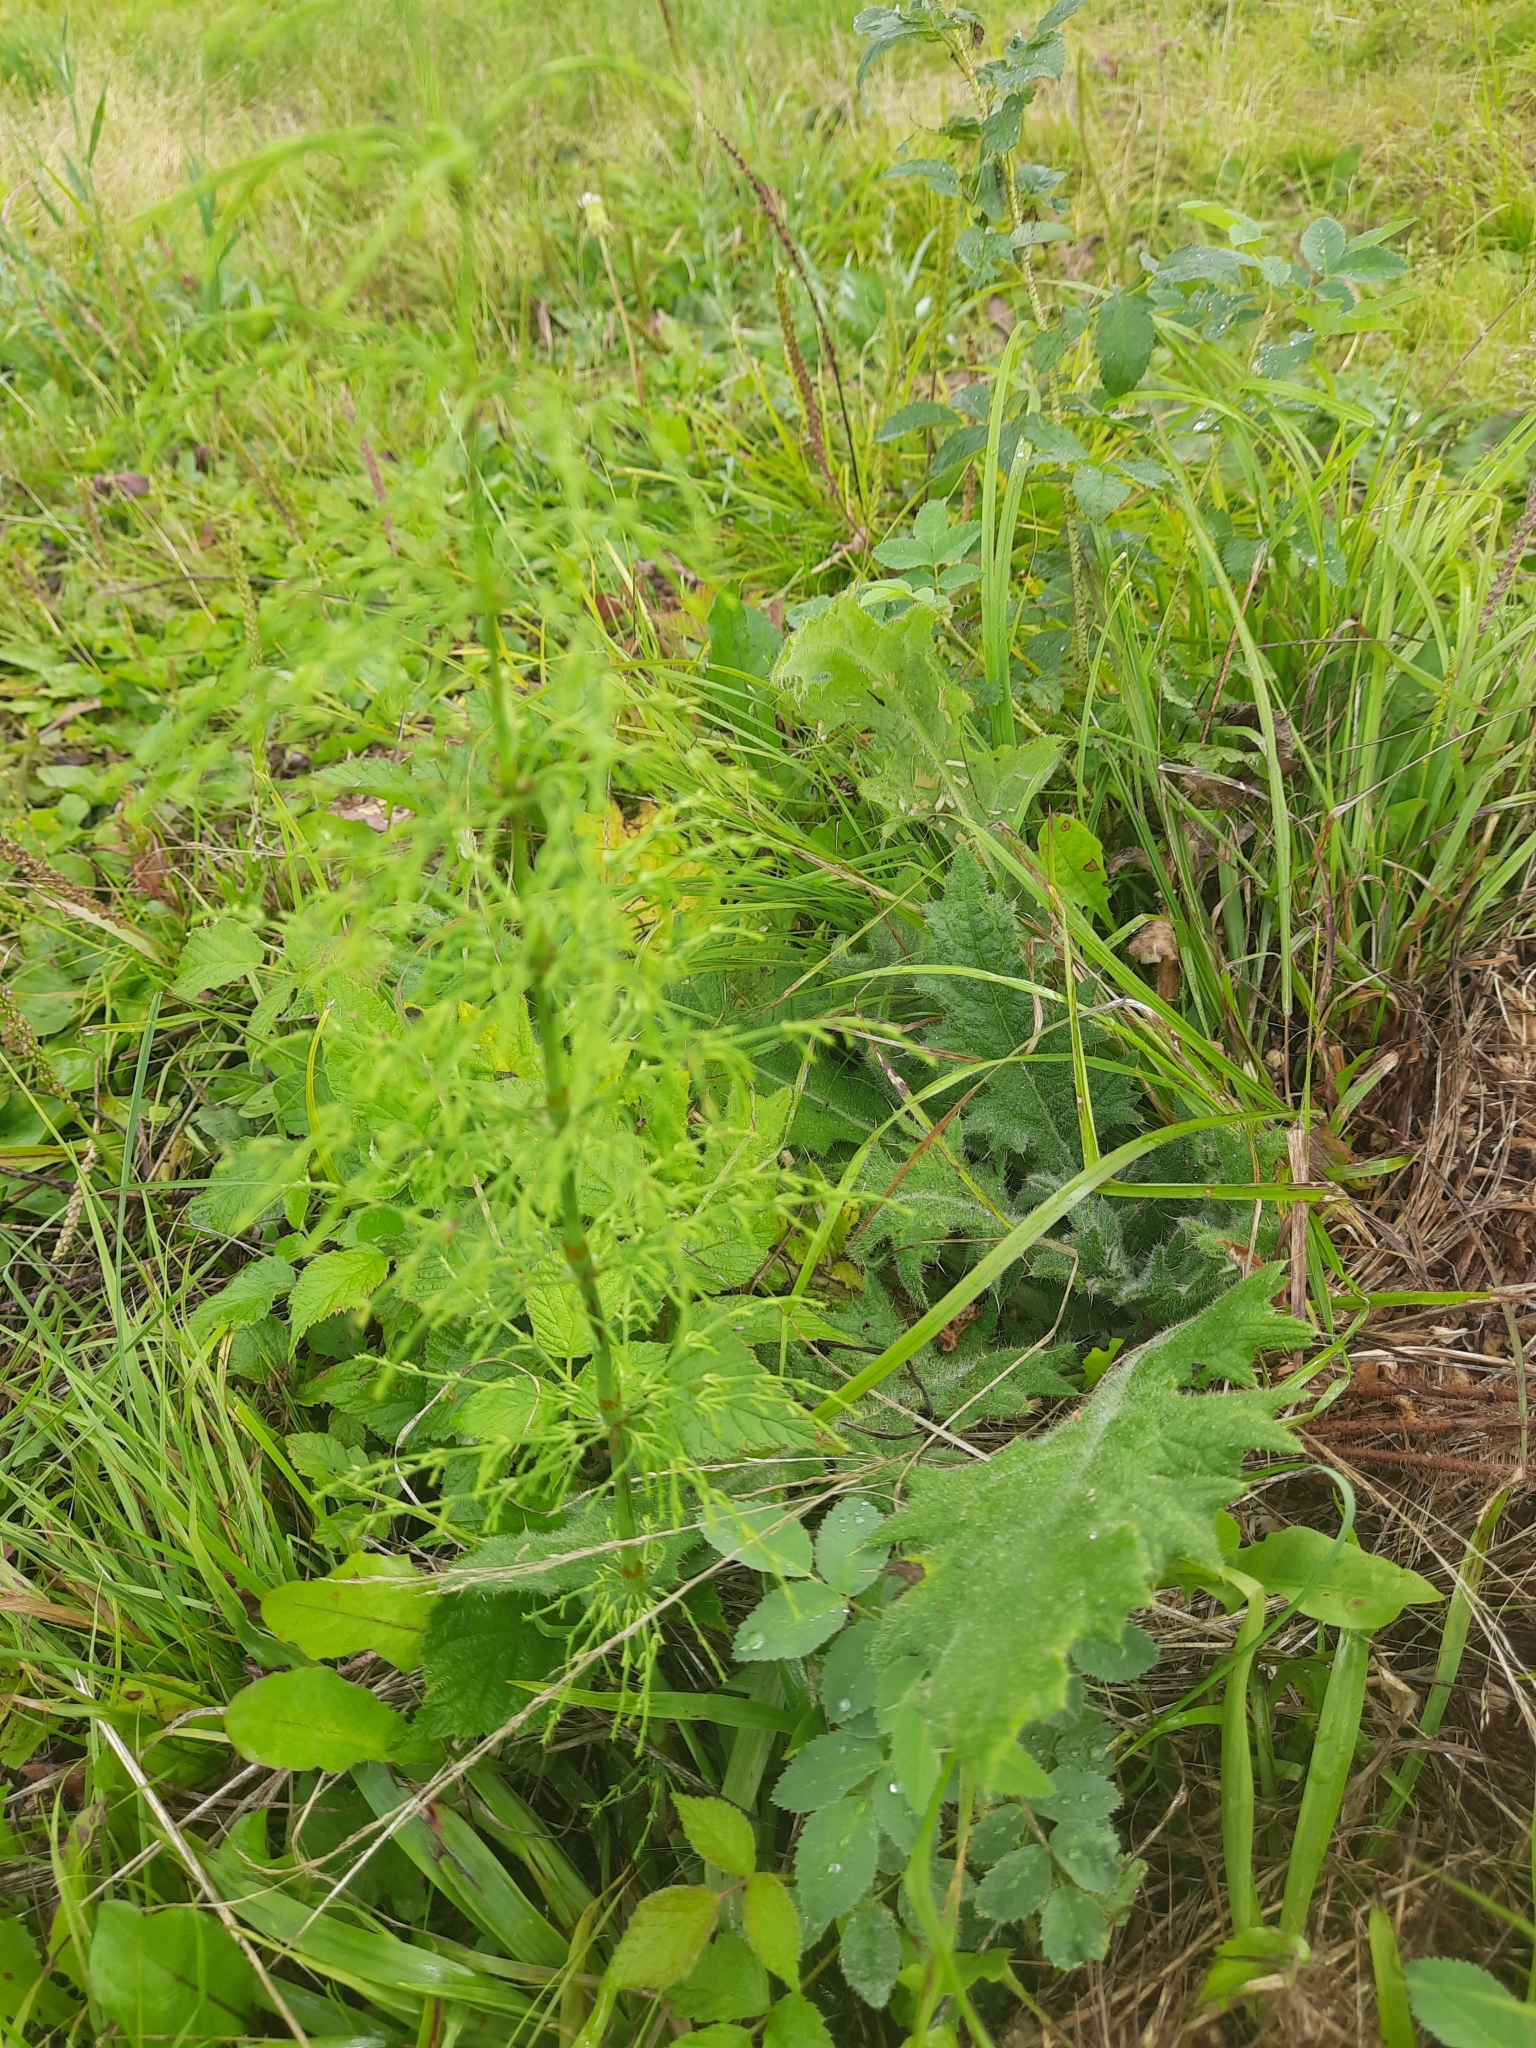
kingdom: Plantae
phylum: Tracheophyta
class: Polypodiopsida
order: Equisetales
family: Equisetaceae
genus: Equisetum
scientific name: Equisetum sylvaticum
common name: Wood horsetail
